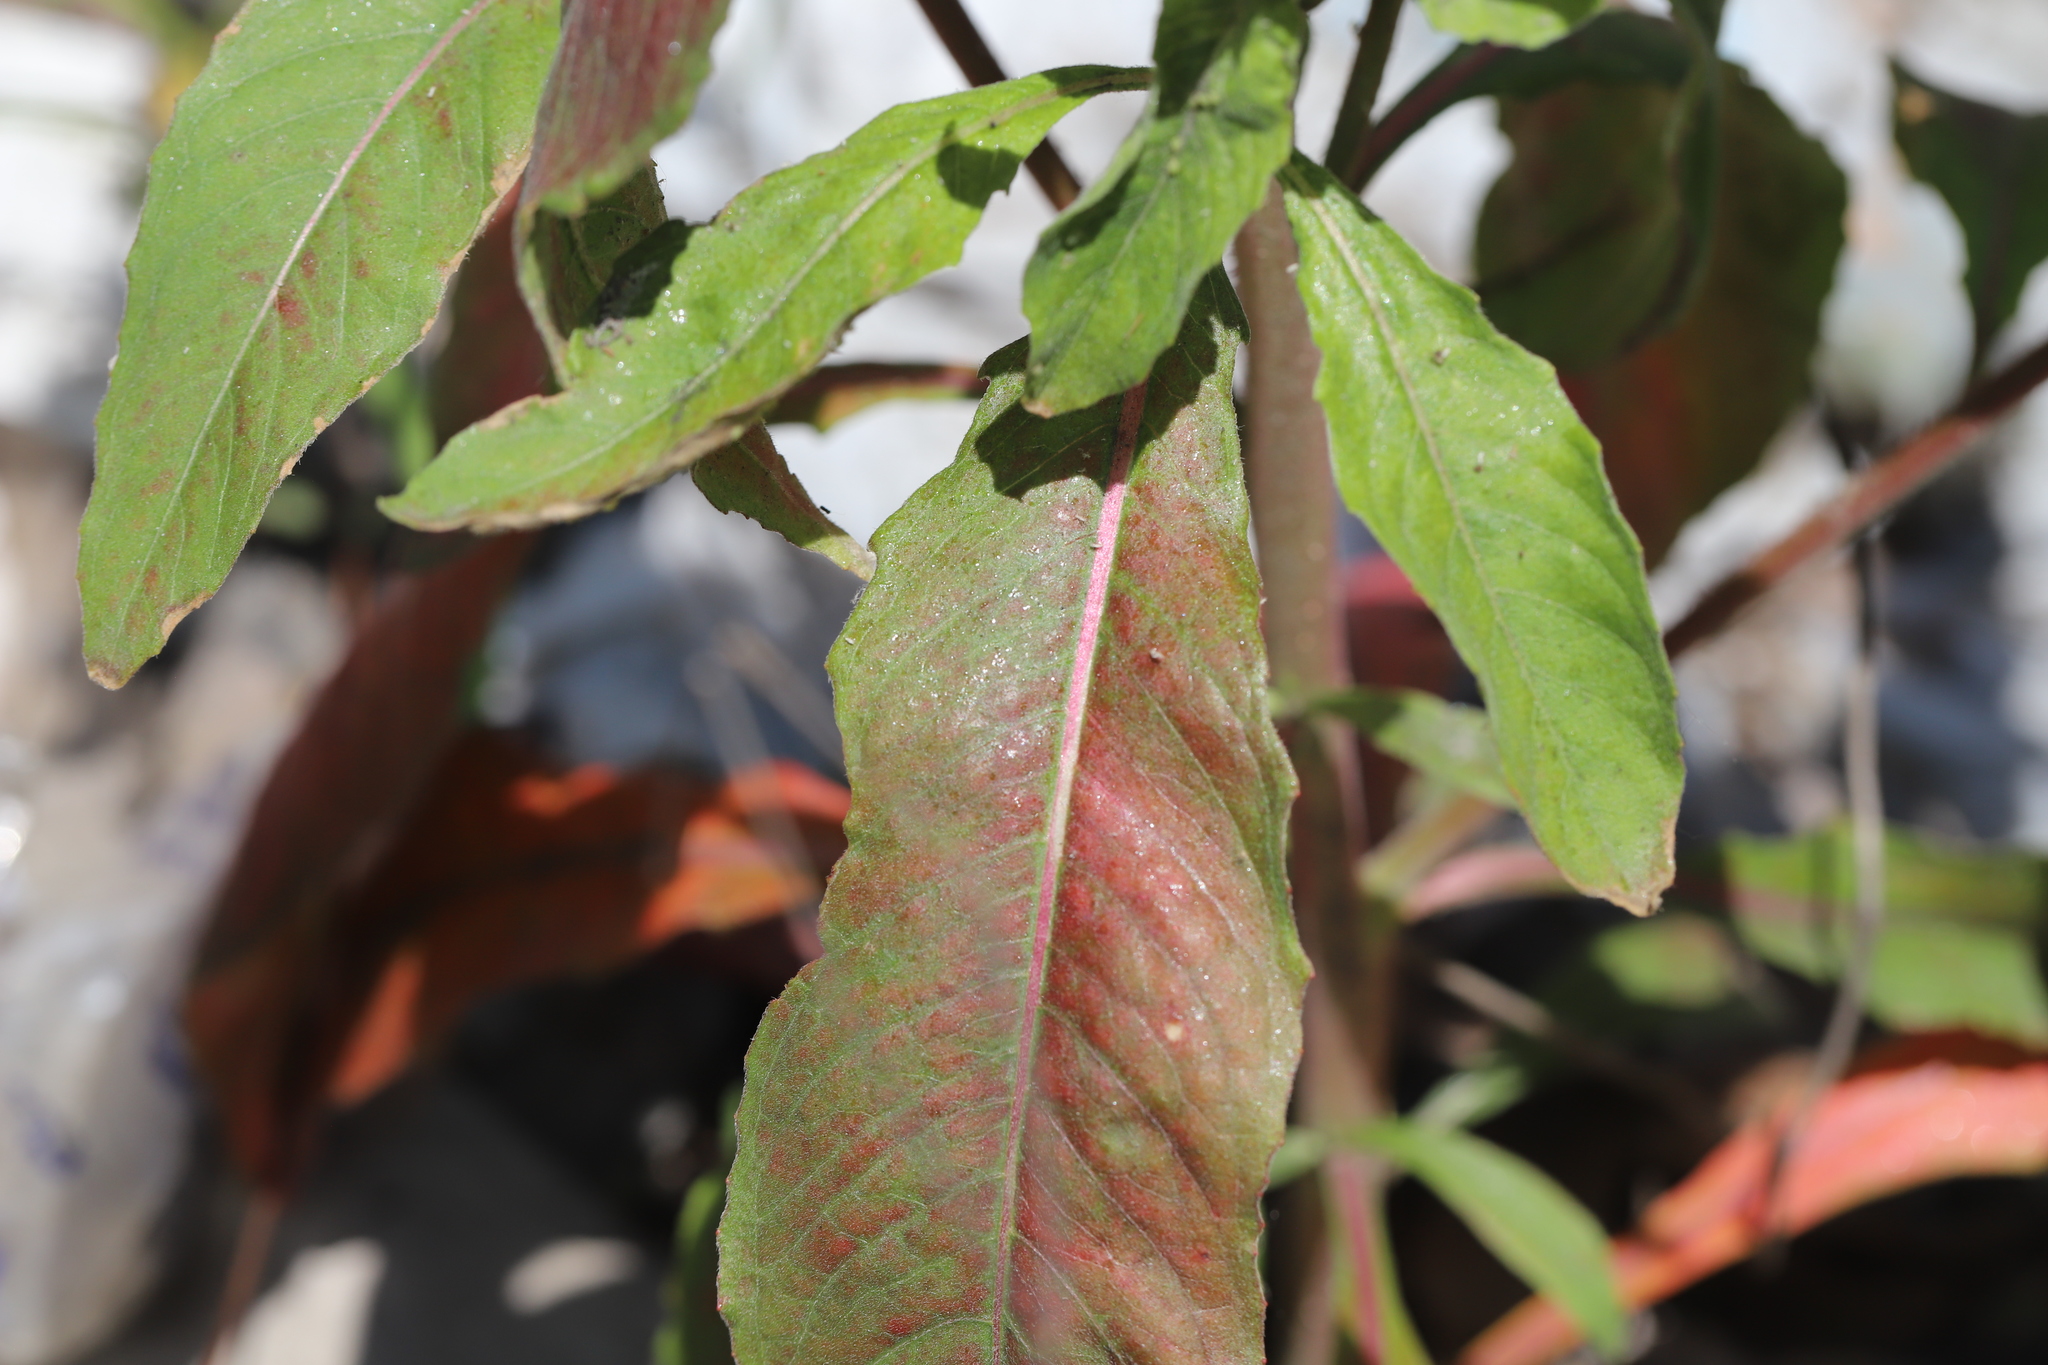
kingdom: Plantae
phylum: Tracheophyta
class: Magnoliopsida
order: Myrtales
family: Onagraceae
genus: Oenothera
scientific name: Oenothera biennis
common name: Common evening-primrose
